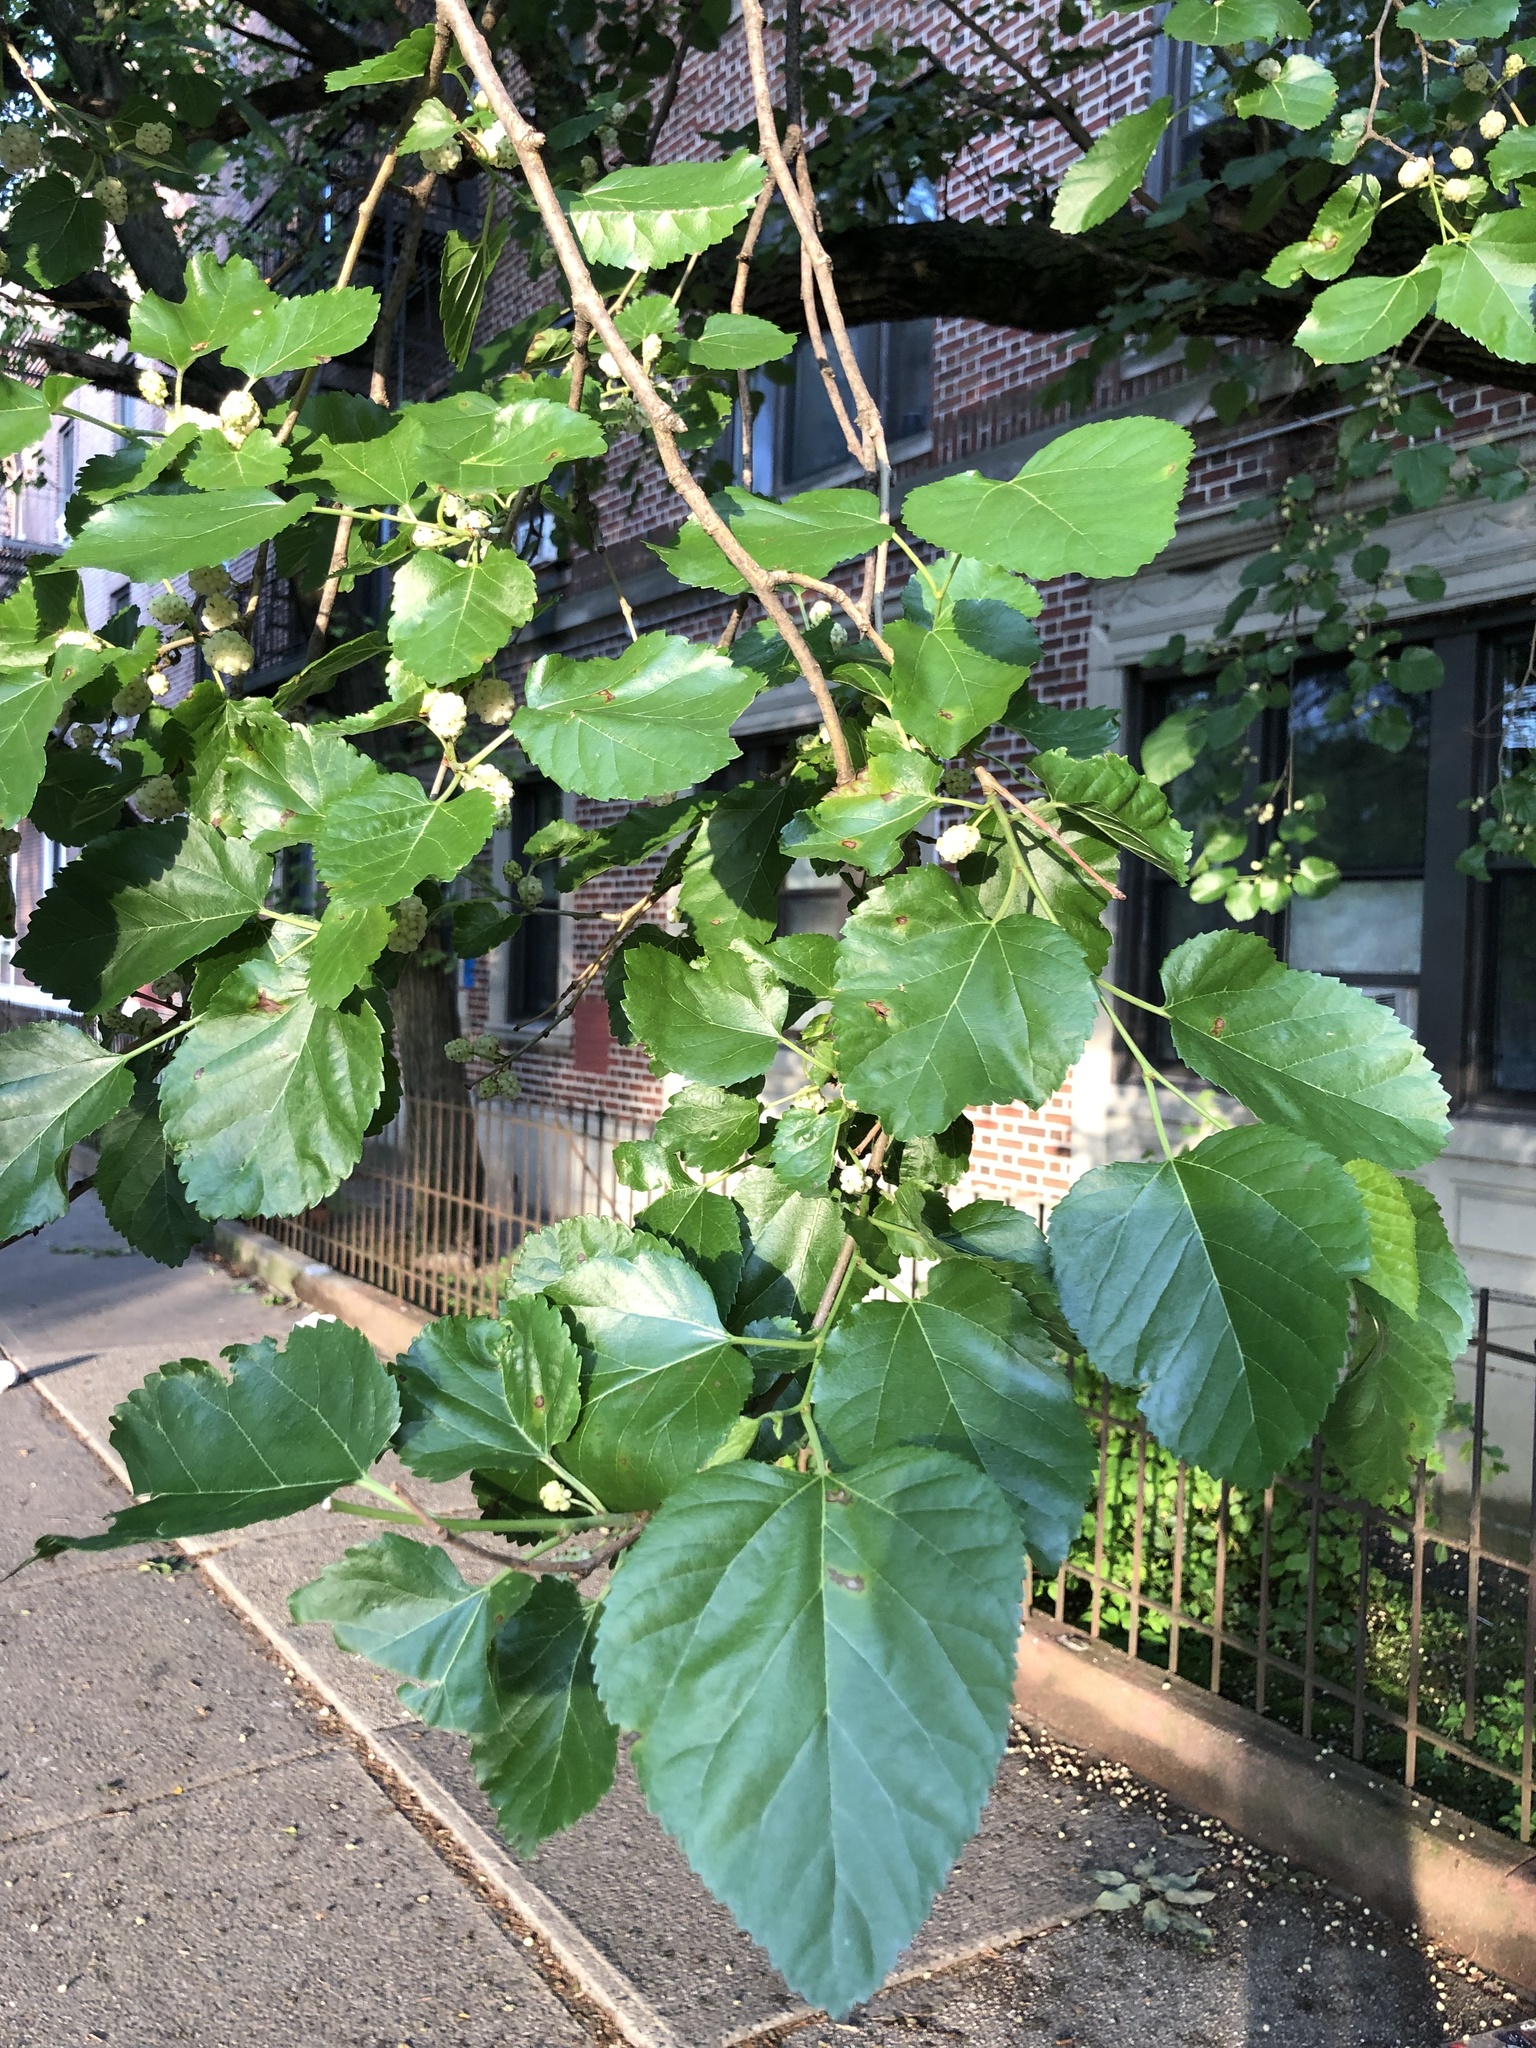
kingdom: Plantae
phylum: Tracheophyta
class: Magnoliopsida
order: Rosales
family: Moraceae
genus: Morus
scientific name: Morus alba
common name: White mulberry
